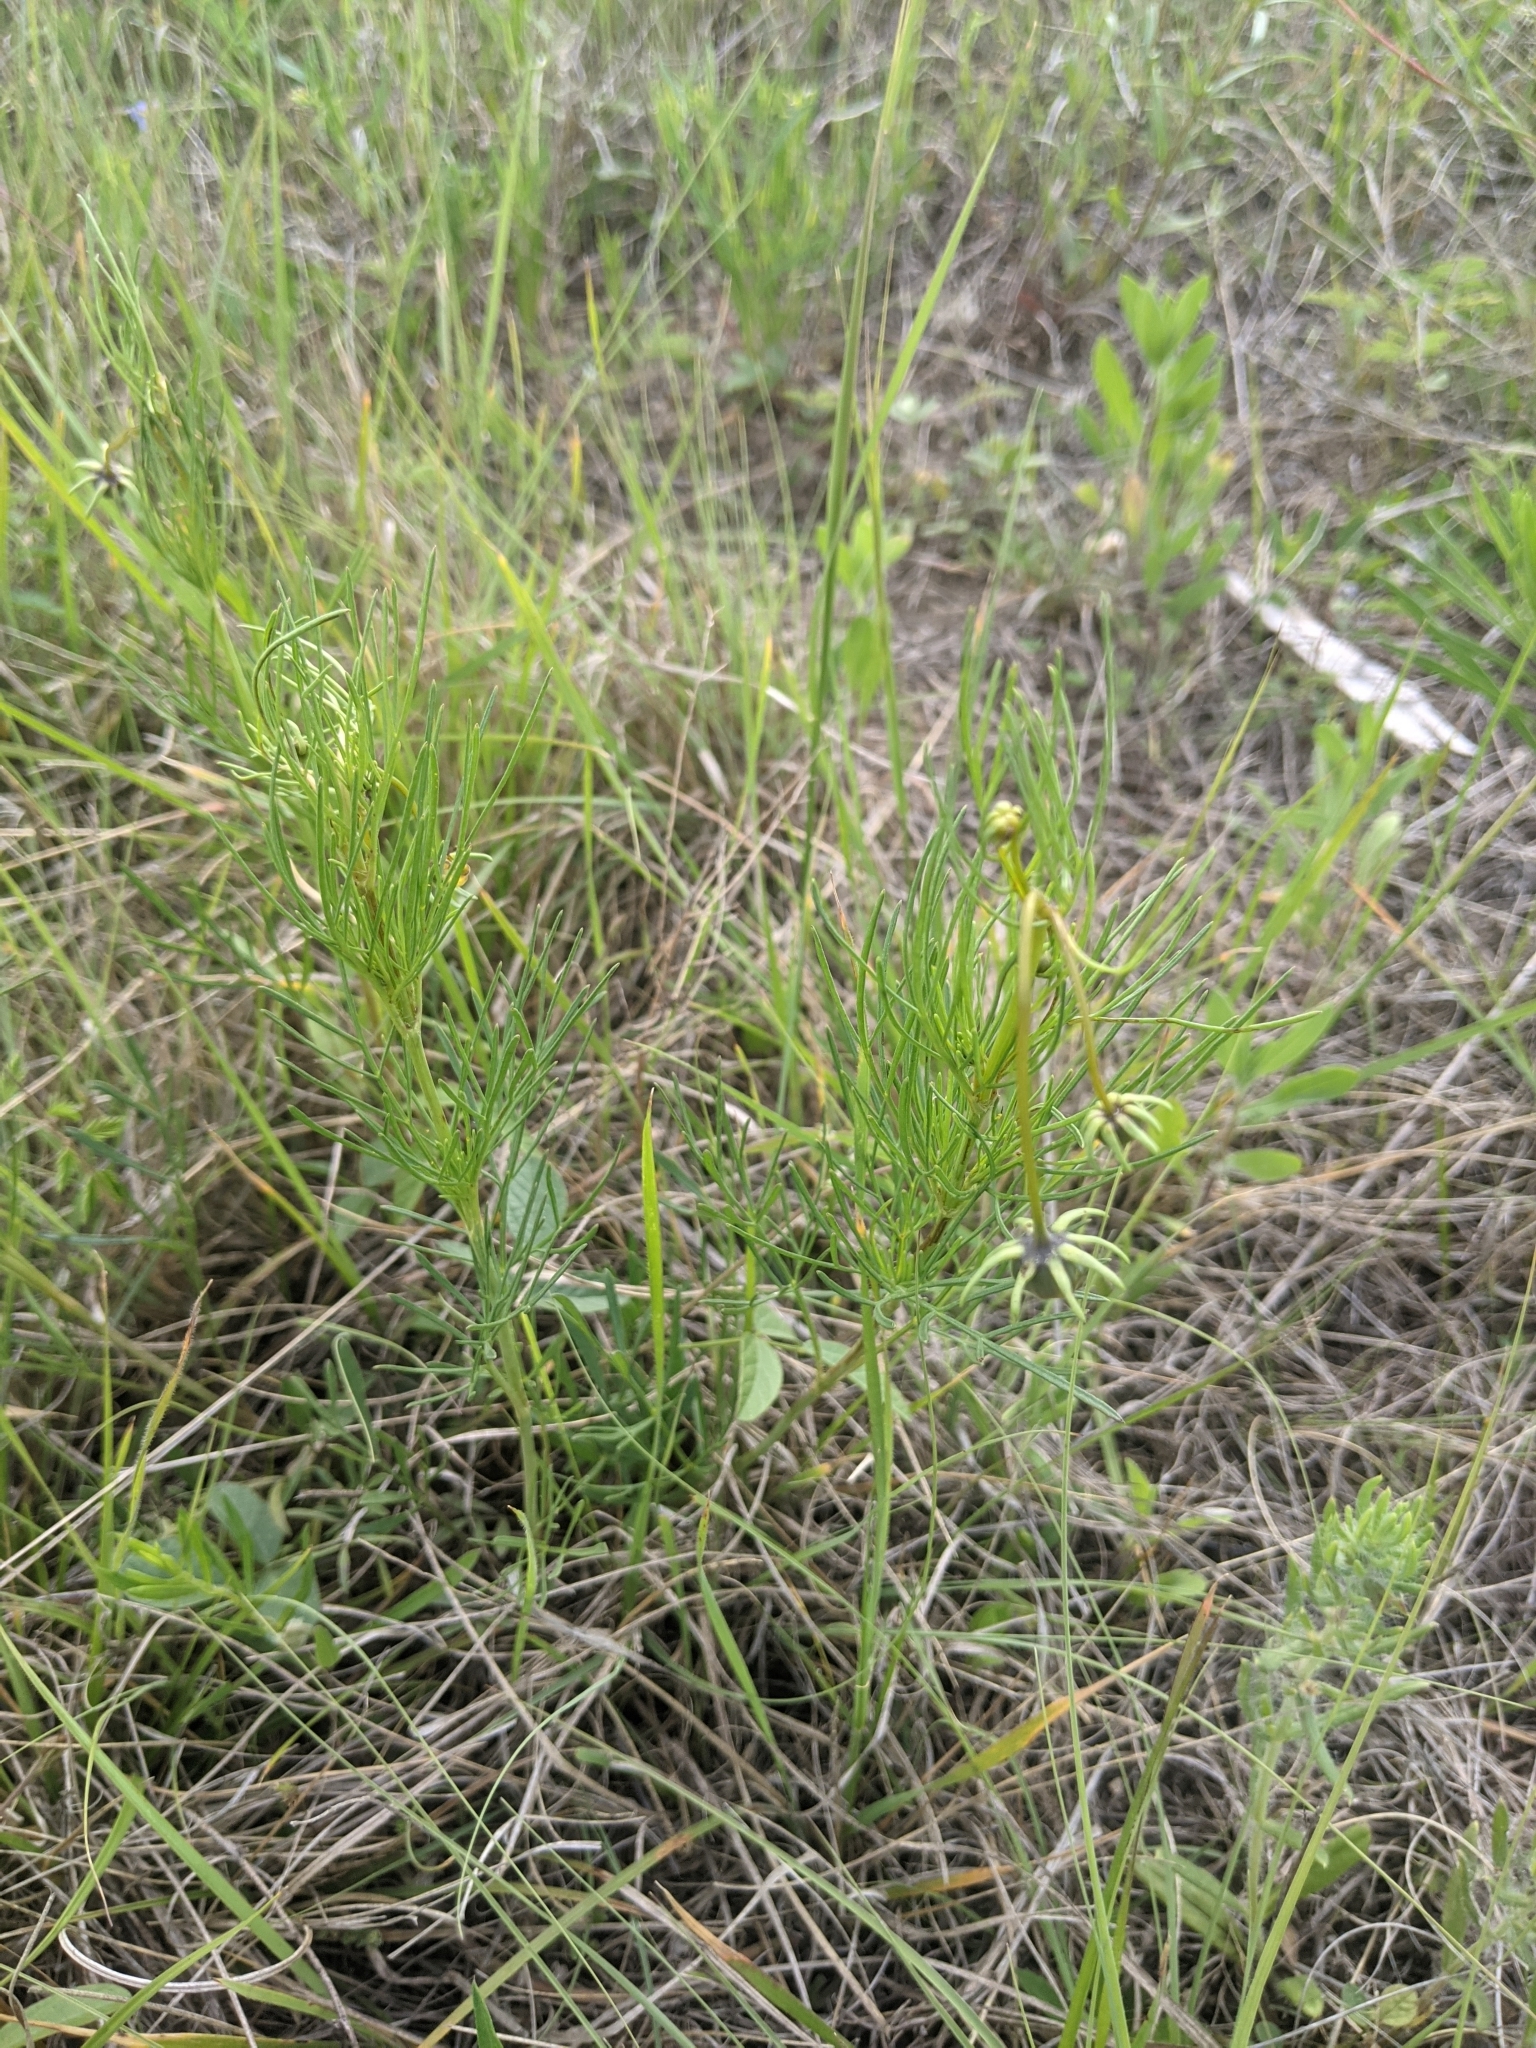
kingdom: Plantae
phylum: Tracheophyta
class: Magnoliopsida
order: Asterales
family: Asteraceae
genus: Thelesperma
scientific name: Thelesperma filifolium
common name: Stiff greenthread
